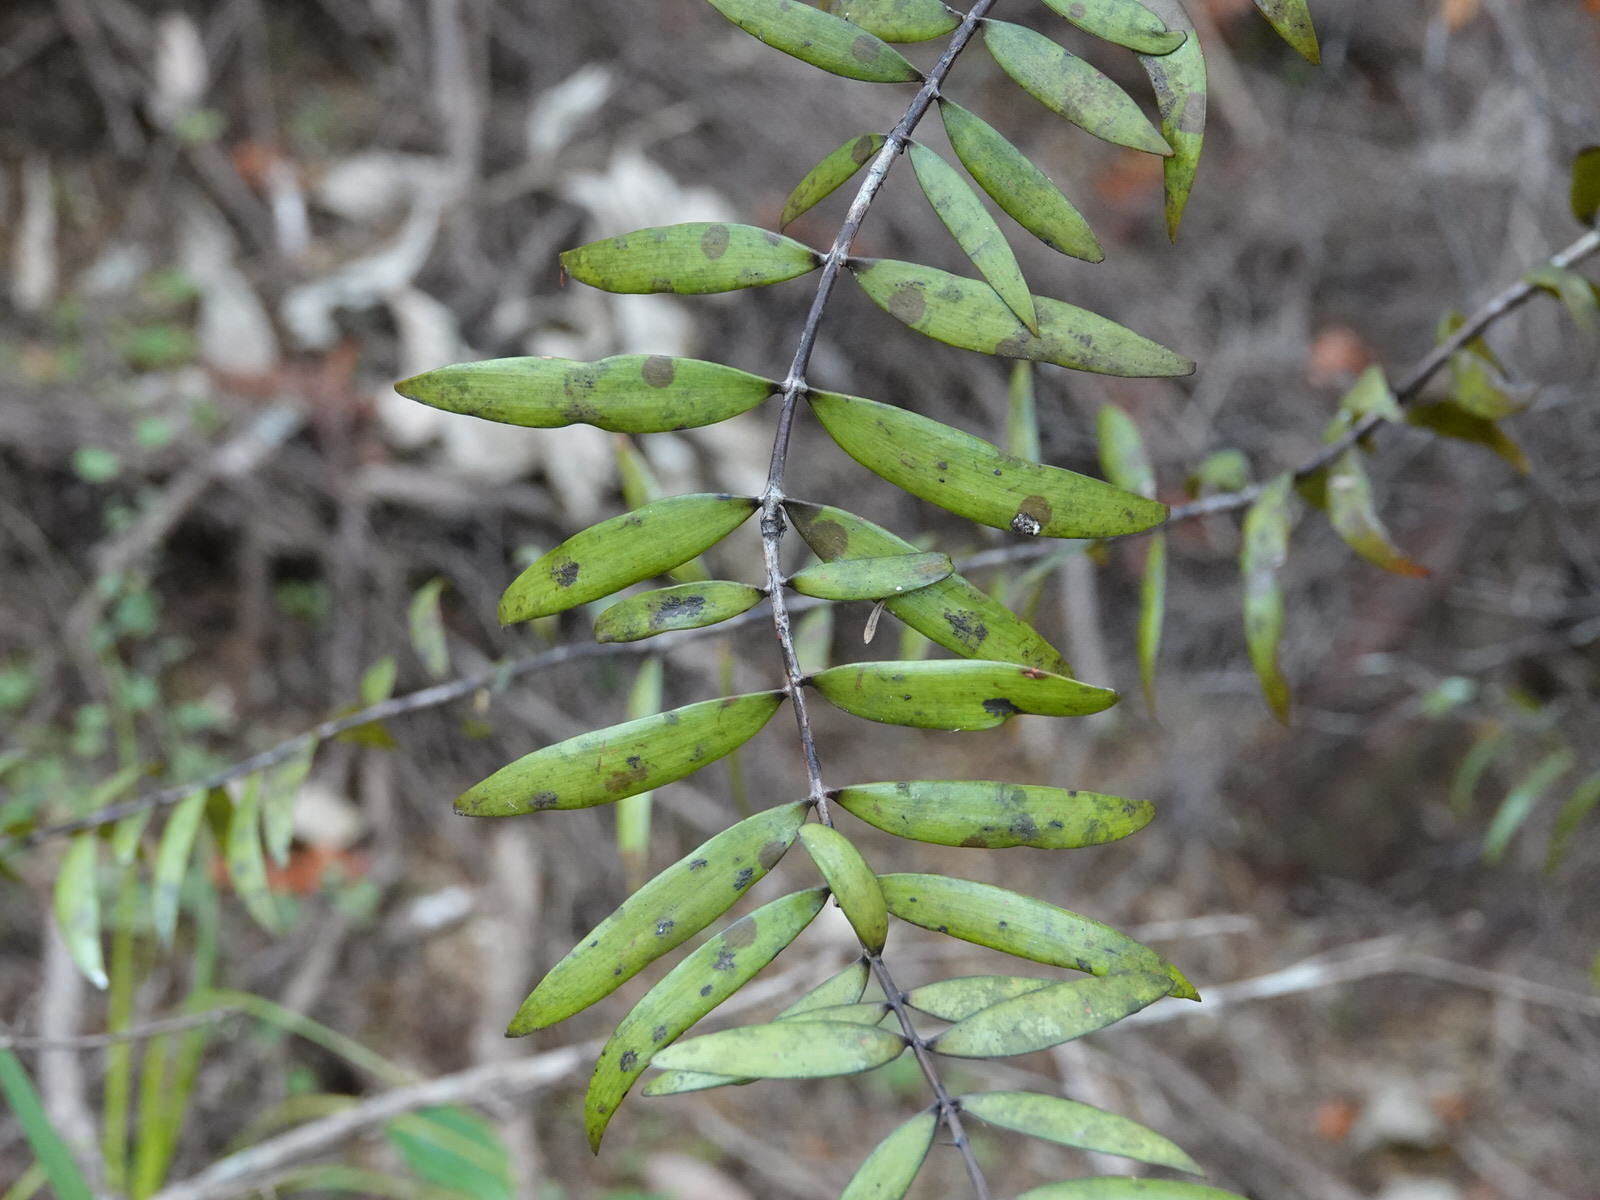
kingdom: Plantae
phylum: Tracheophyta
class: Pinopsida
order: Pinales
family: Araucariaceae
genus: Agathis
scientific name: Agathis australis
